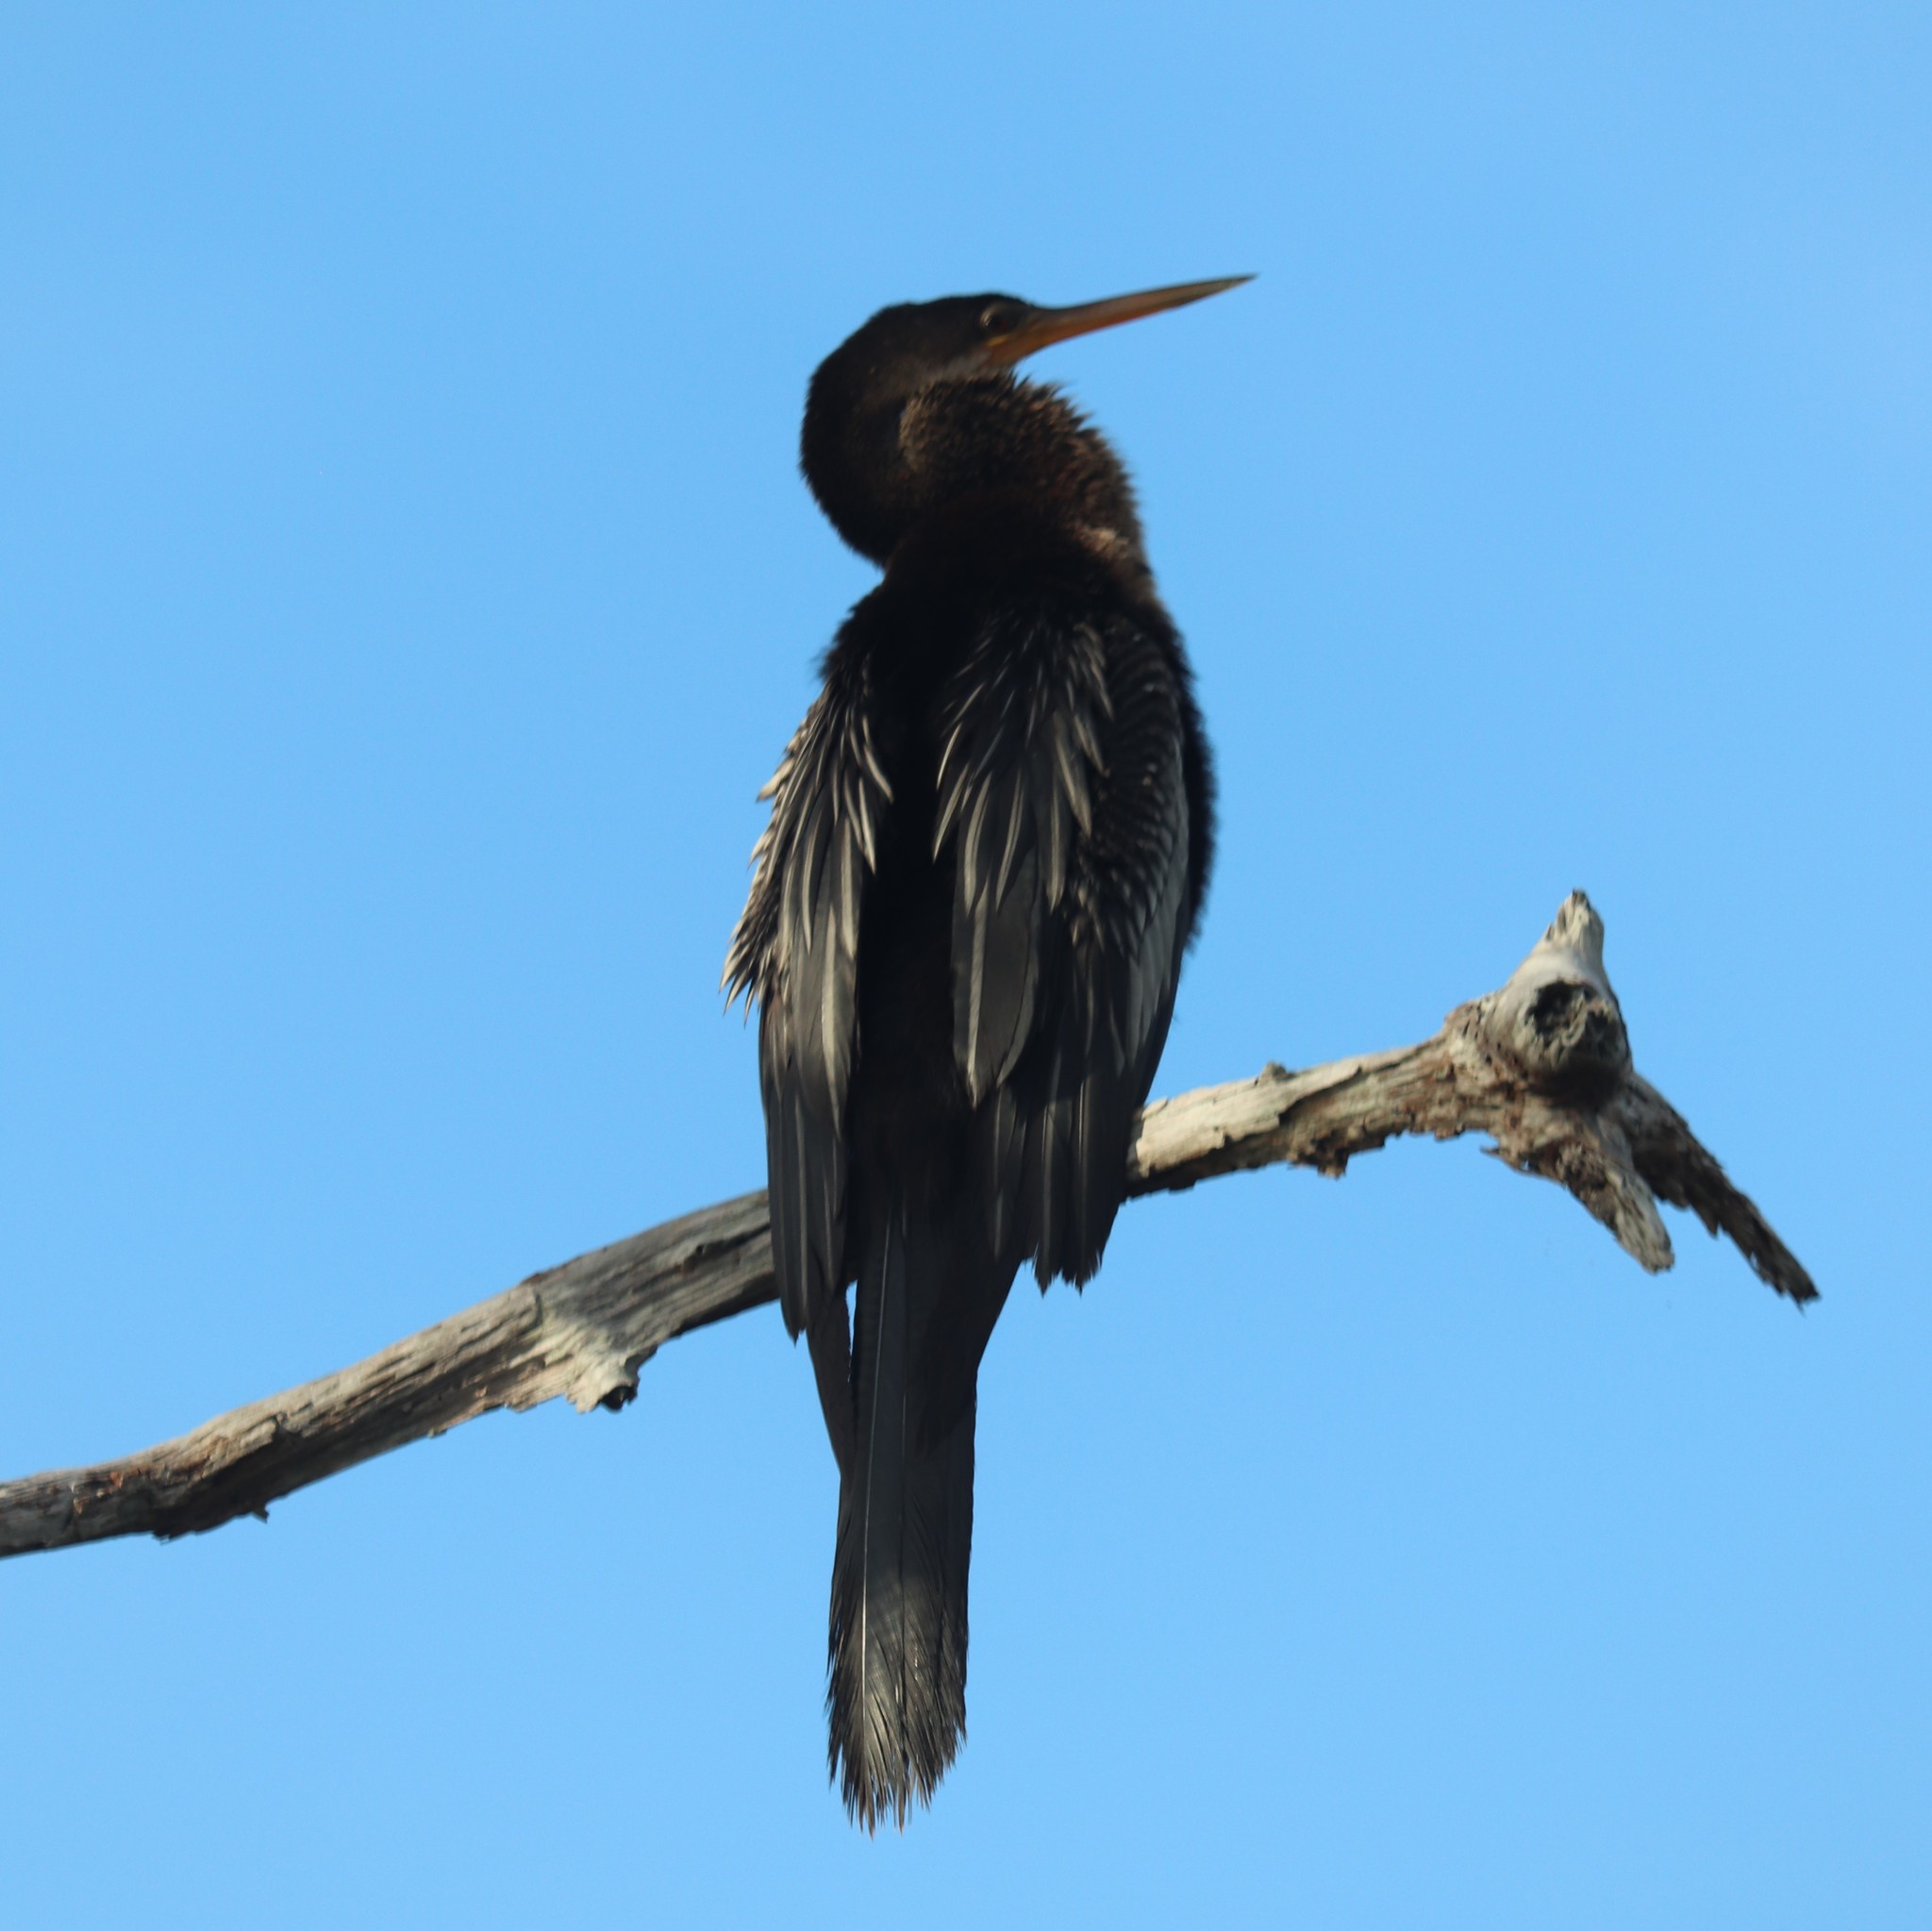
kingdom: Animalia
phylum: Chordata
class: Aves
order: Suliformes
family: Anhingidae
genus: Anhinga
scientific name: Anhinga anhinga
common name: Anhinga
